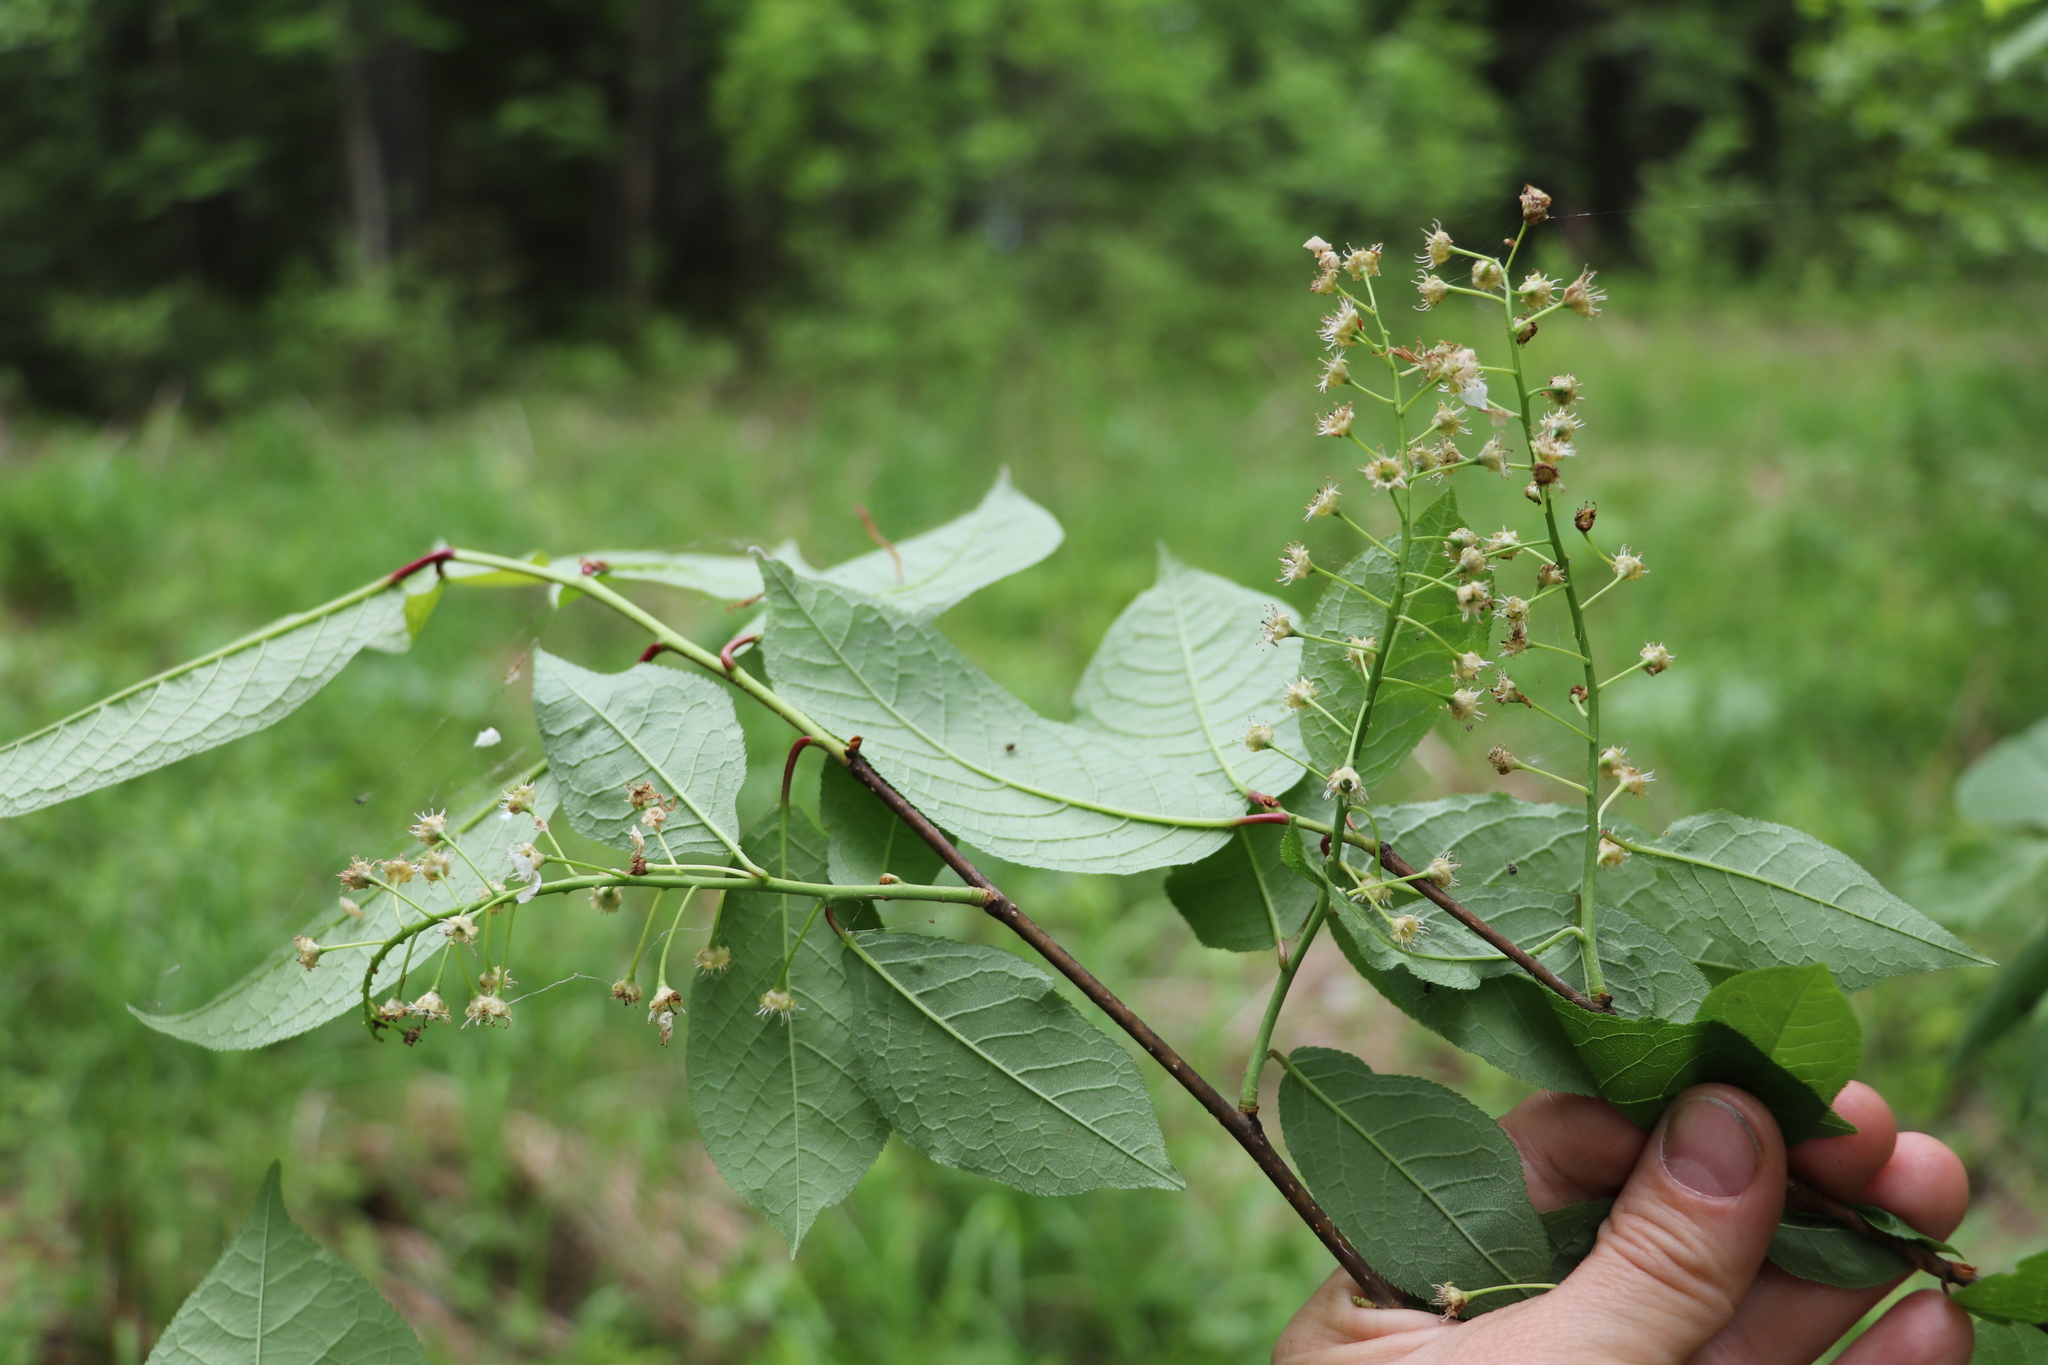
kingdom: Plantae
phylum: Tracheophyta
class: Magnoliopsida
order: Rosales
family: Rosaceae
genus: Prunus
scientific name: Prunus padus
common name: Bird cherry
